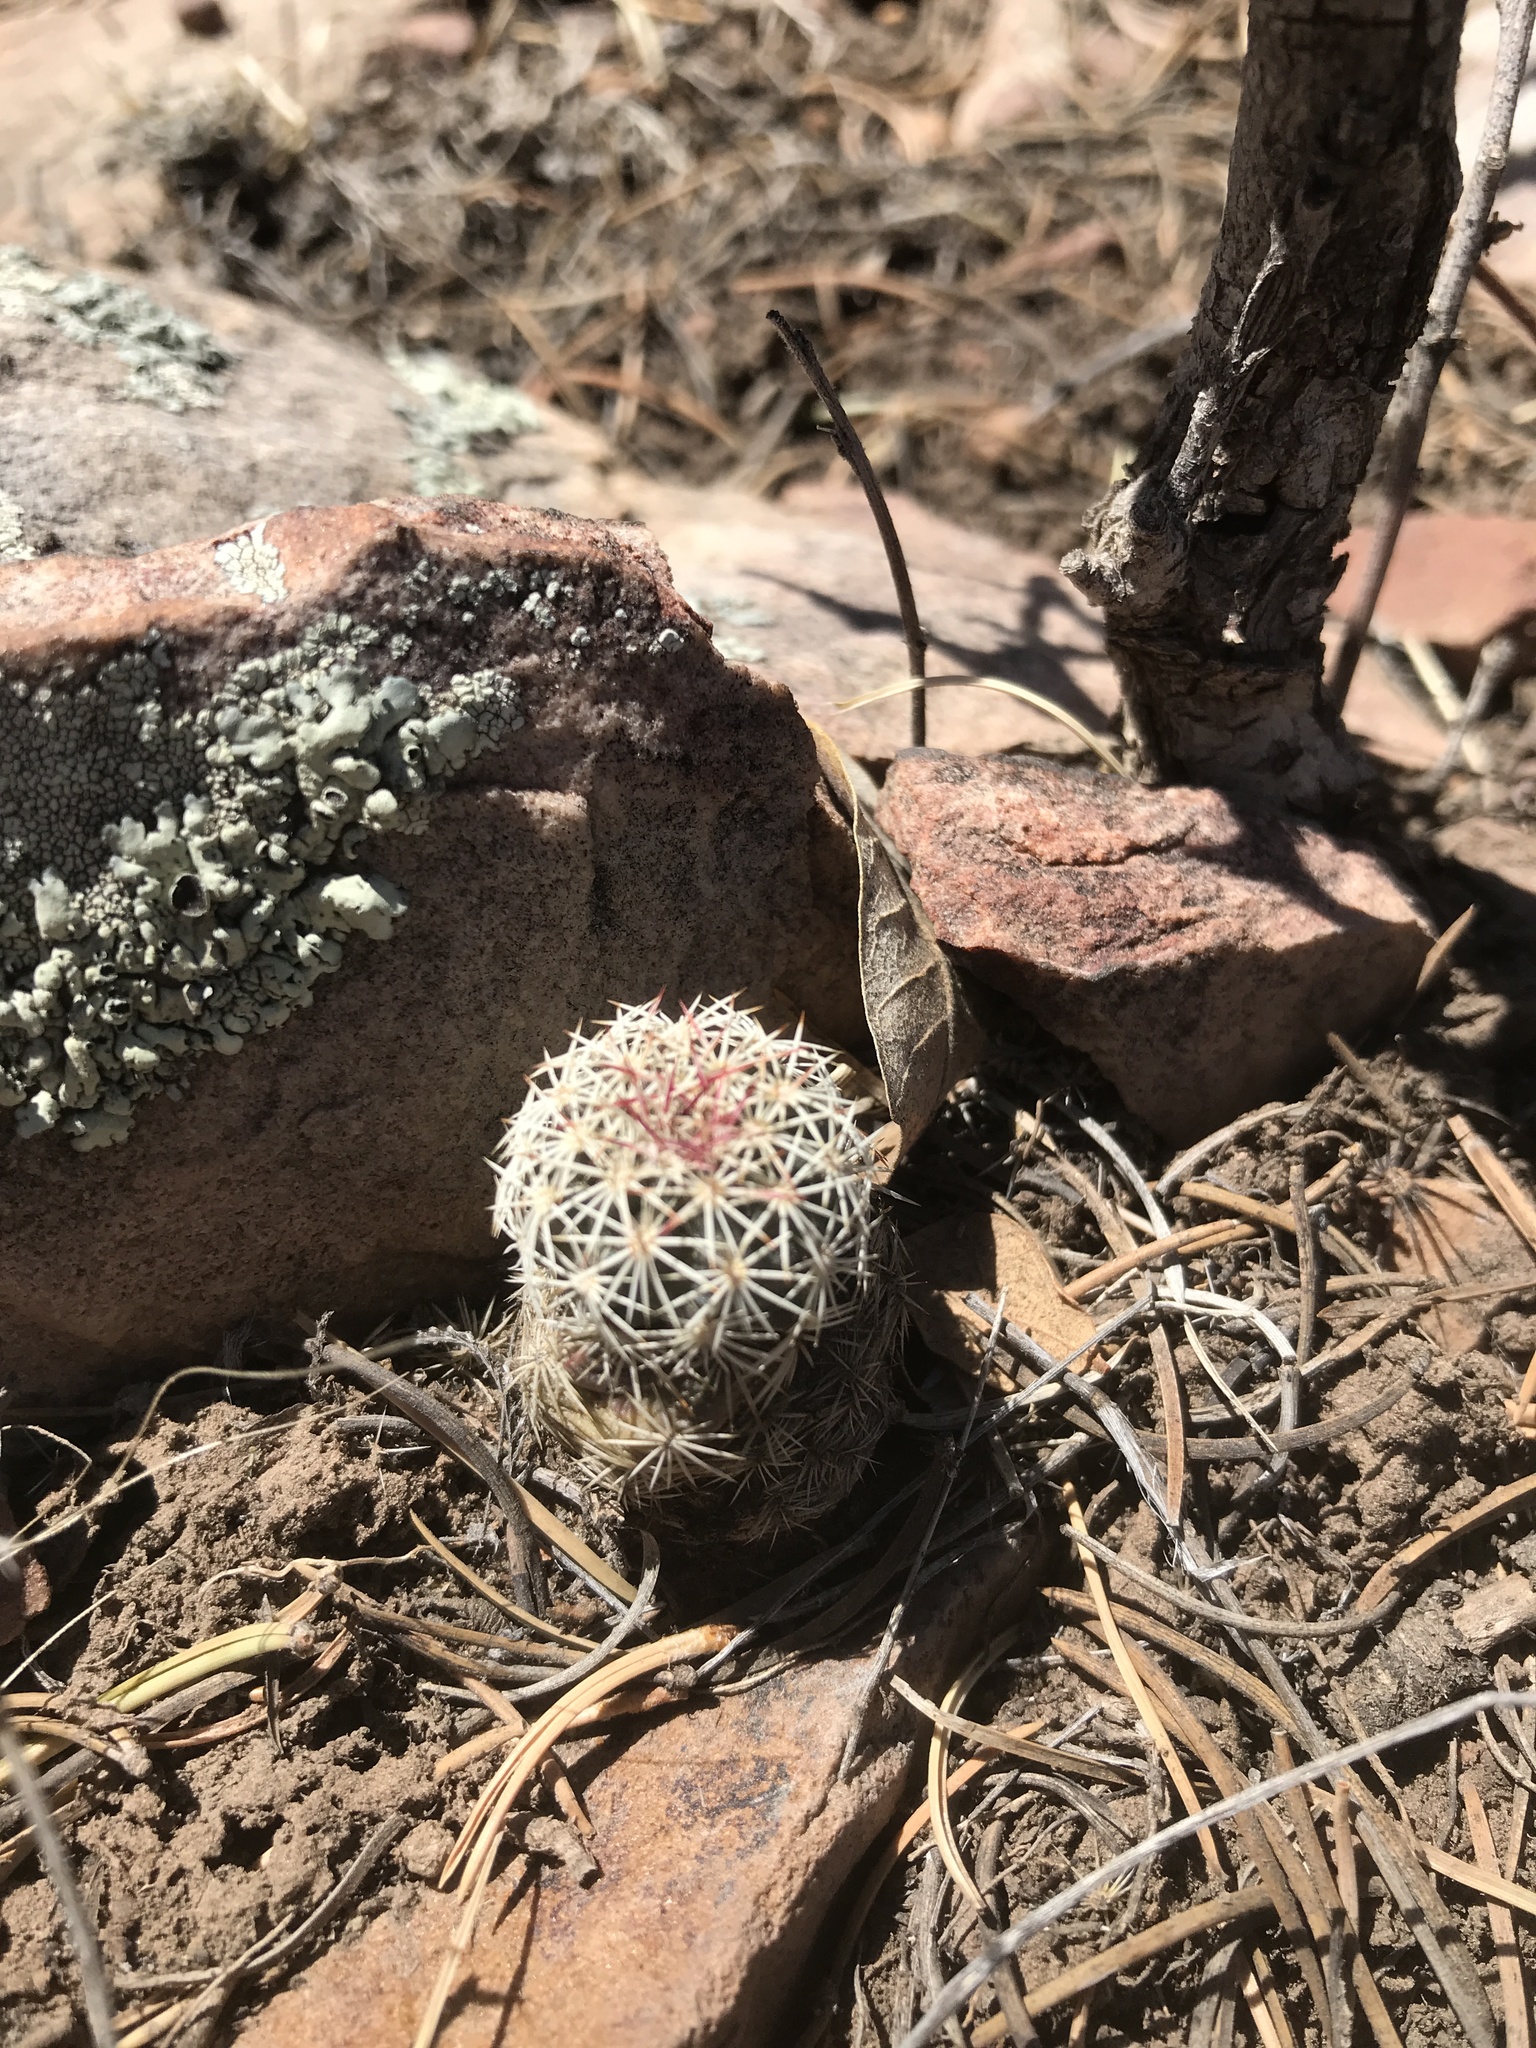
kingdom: Plantae
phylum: Tracheophyta
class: Magnoliopsida
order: Caryophyllales
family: Cactaceae
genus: Echinocereus
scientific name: Echinocereus viridiflorus
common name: Nylon hedgehog cactus
